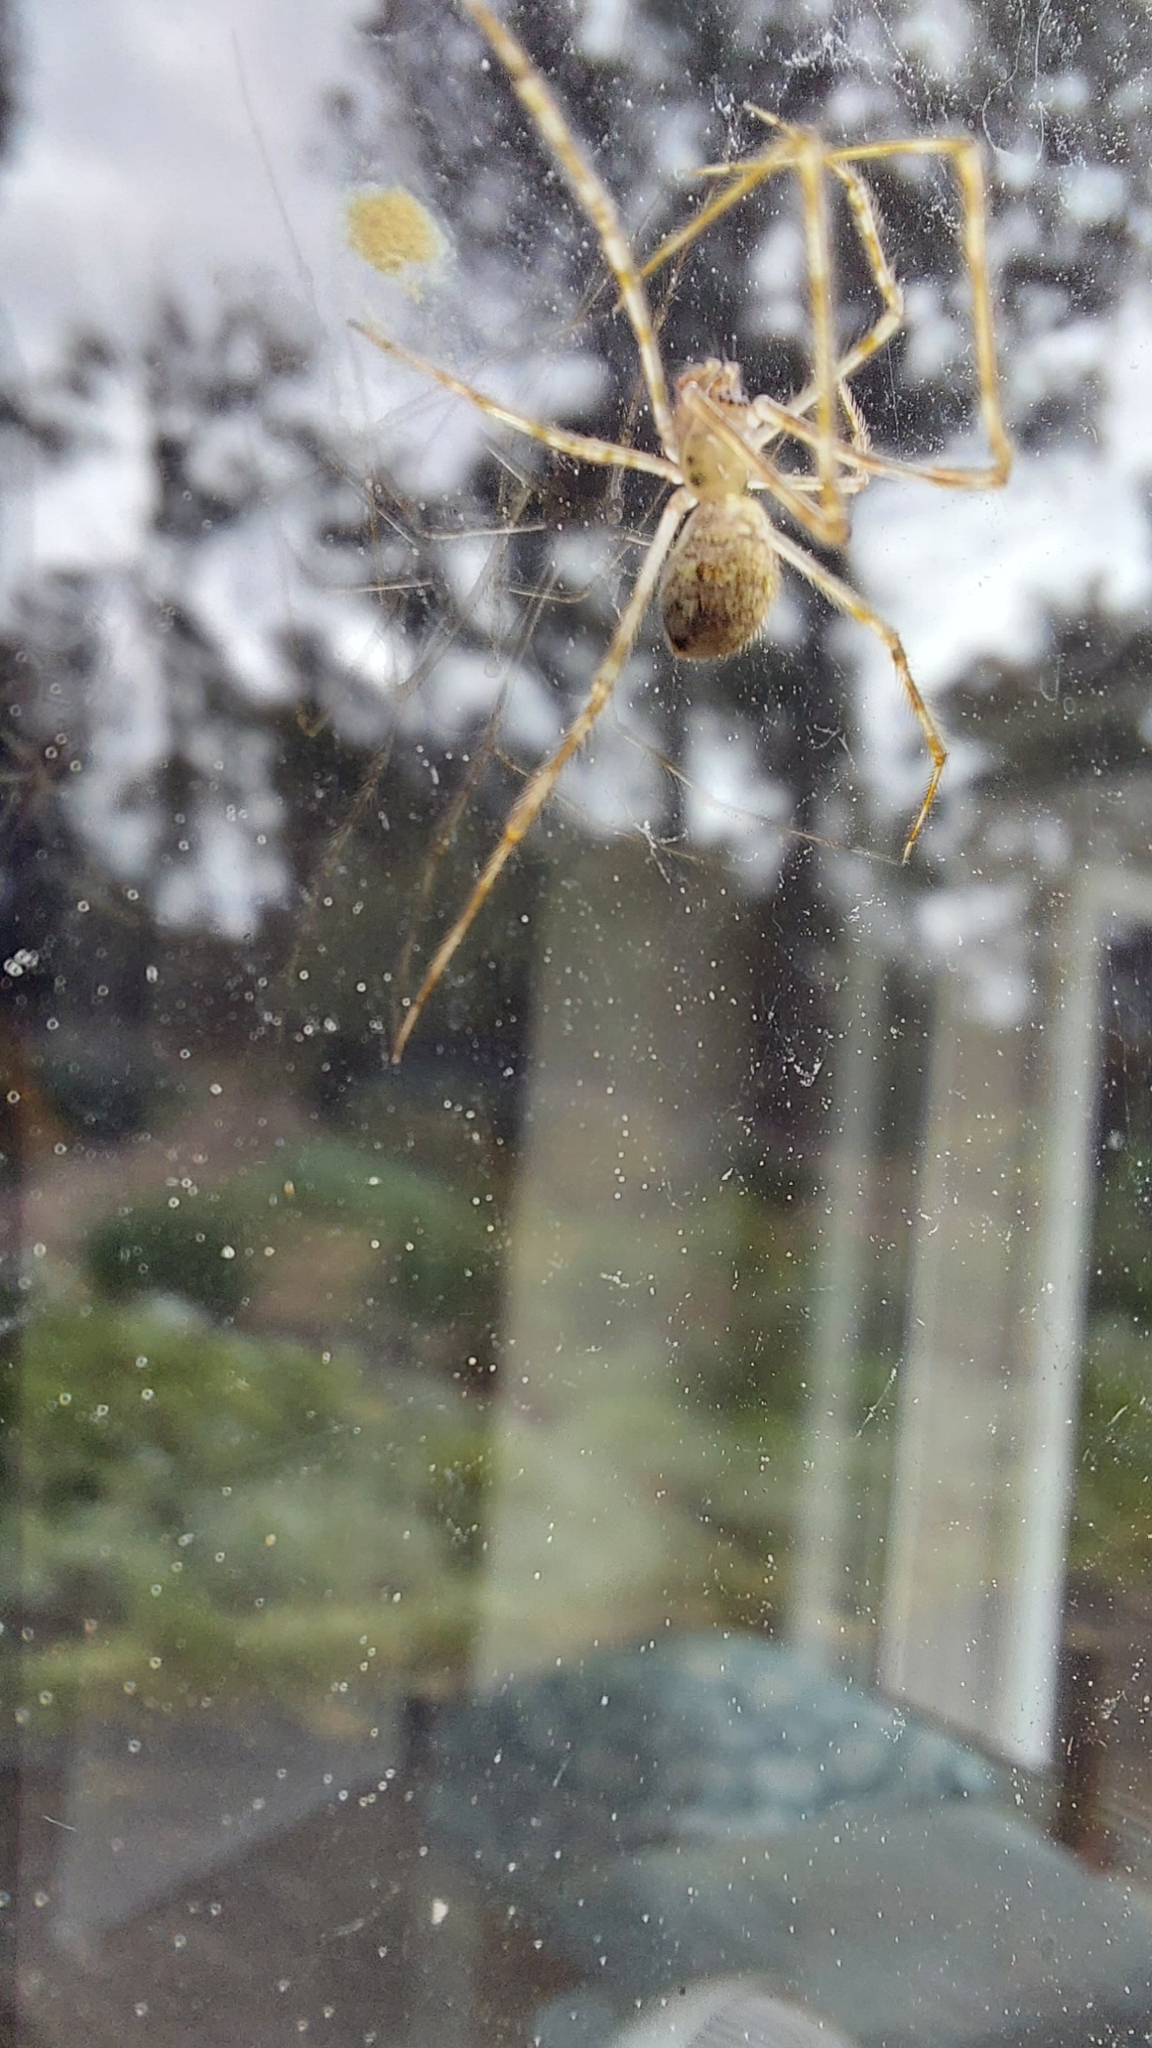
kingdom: Animalia
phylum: Arthropoda
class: Arachnida
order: Araneae
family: Theridiidae
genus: Cryptachaea
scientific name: Cryptachaea gigantipes
